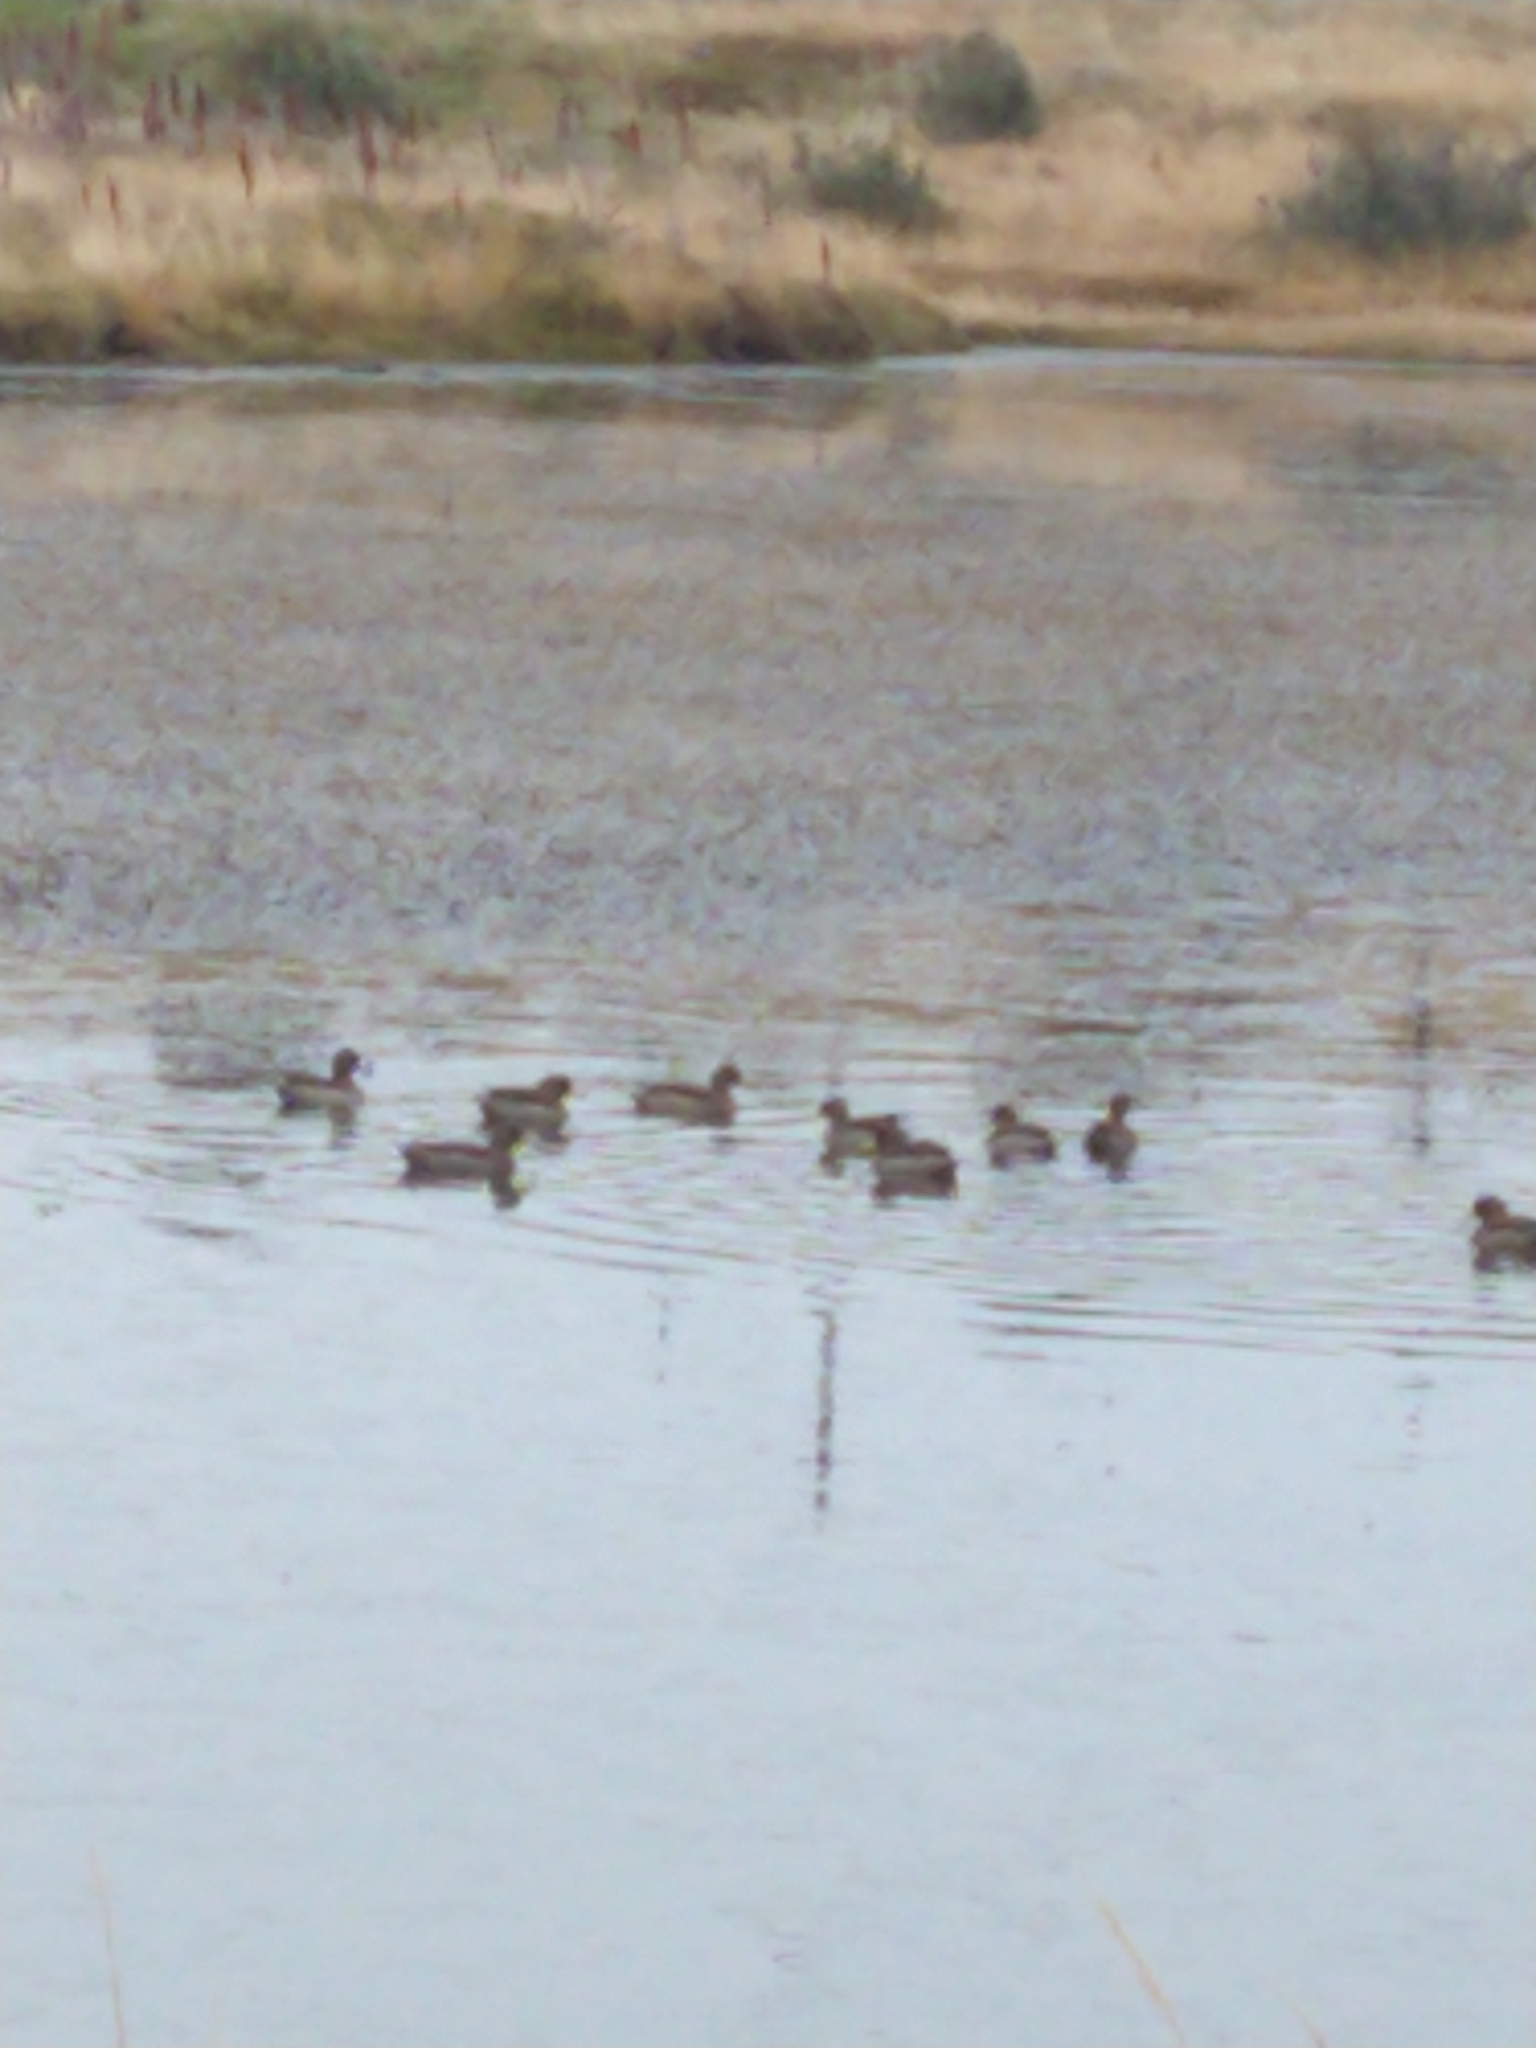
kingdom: Animalia
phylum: Chordata
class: Aves
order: Anseriformes
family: Anatidae
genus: Anas
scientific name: Anas flavirostris
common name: Yellow-billed teal
